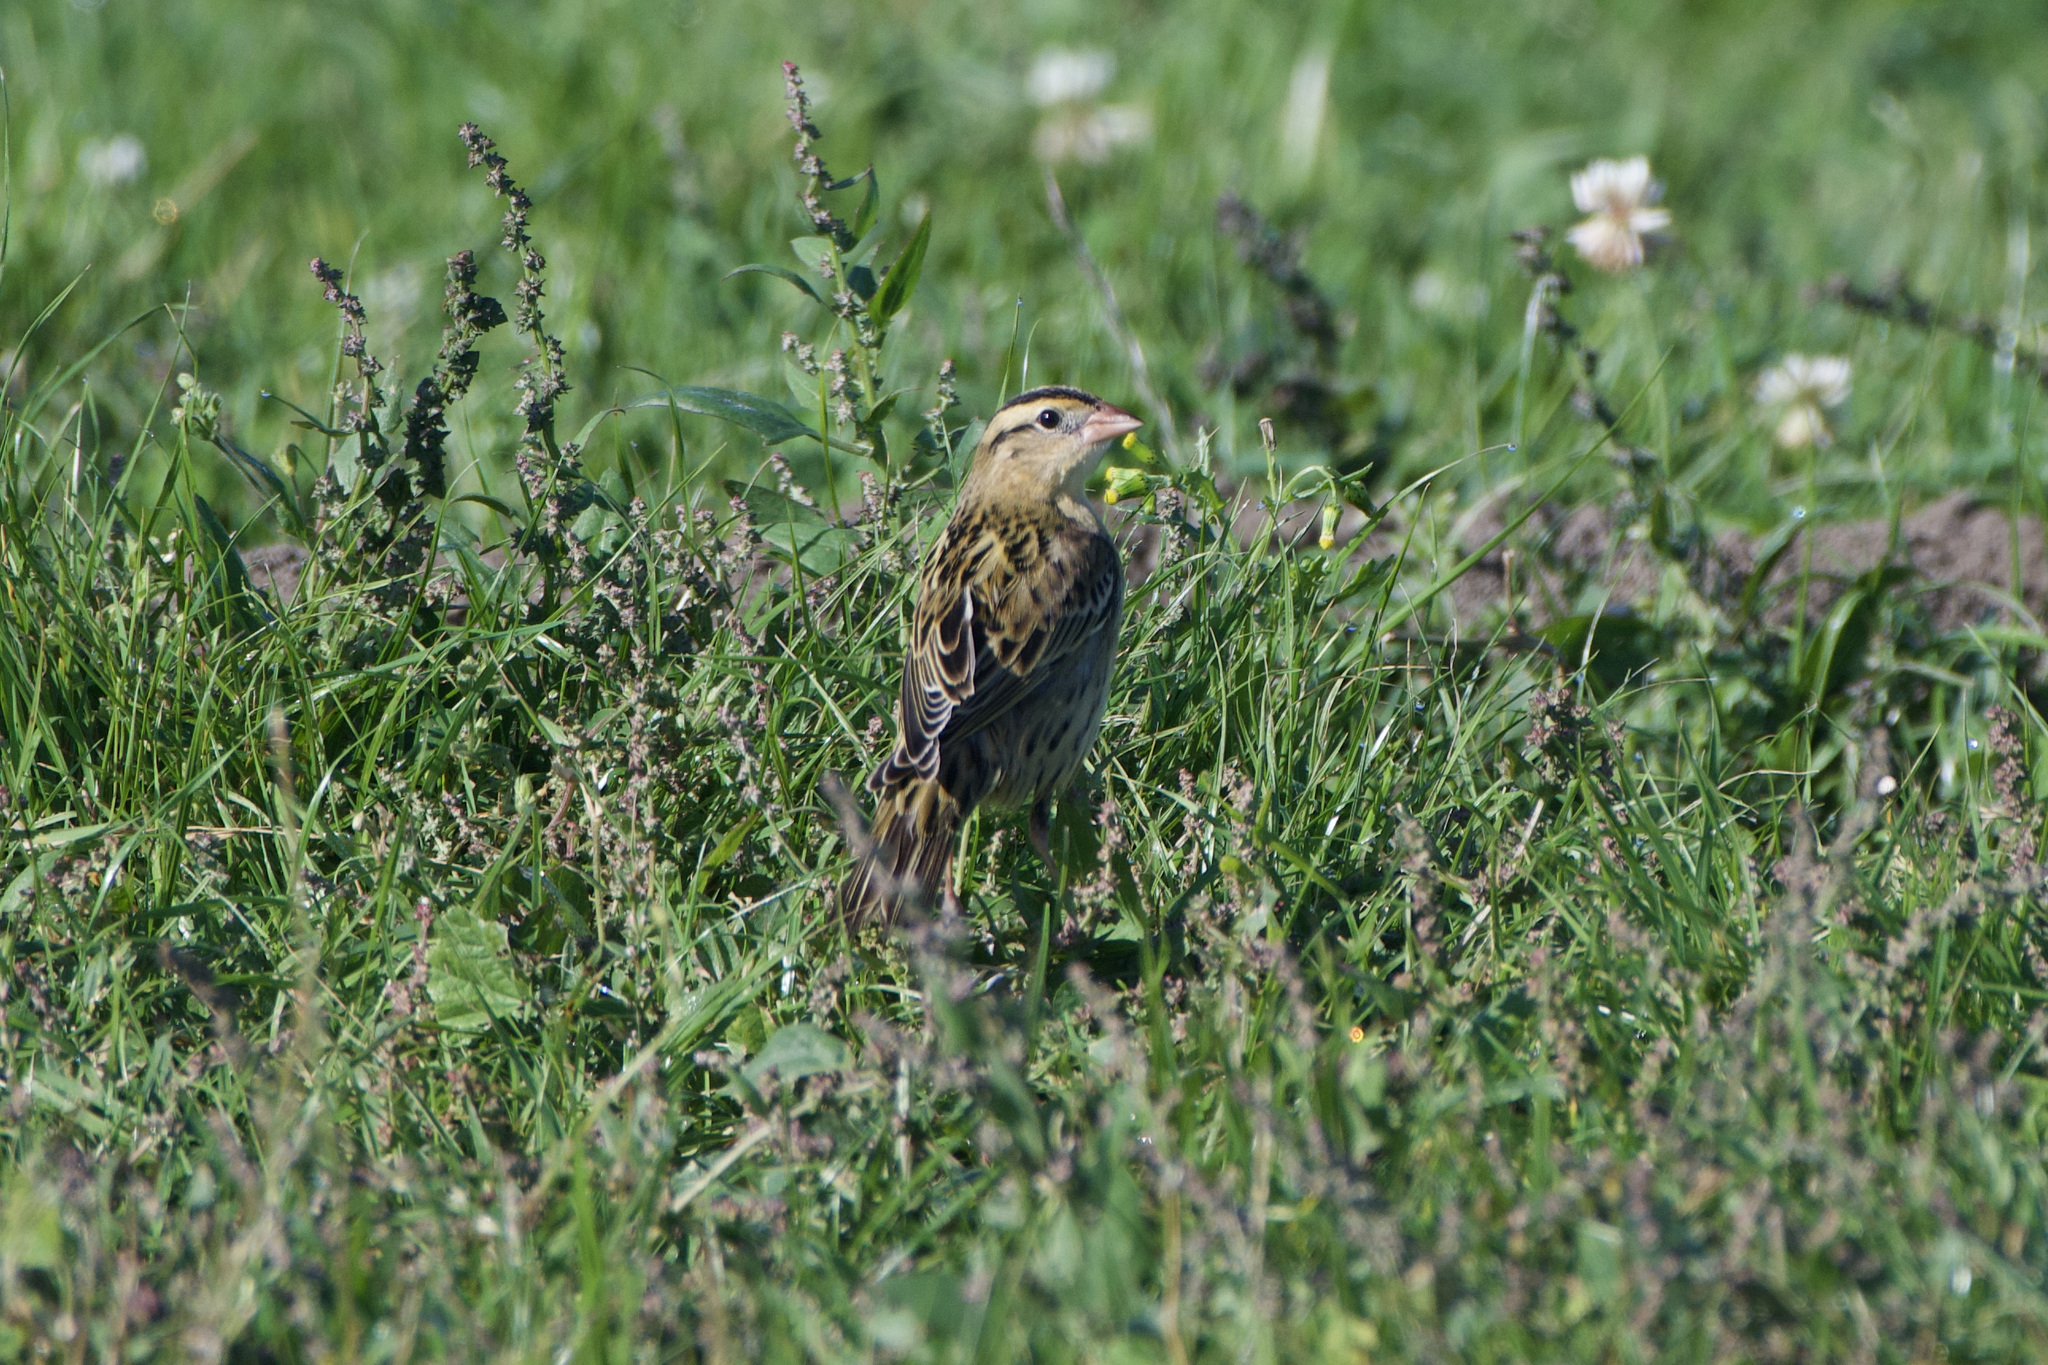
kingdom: Animalia
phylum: Chordata
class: Aves
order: Passeriformes
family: Icteridae
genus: Dolichonyx
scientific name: Dolichonyx oryzivorus
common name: Bobolink
